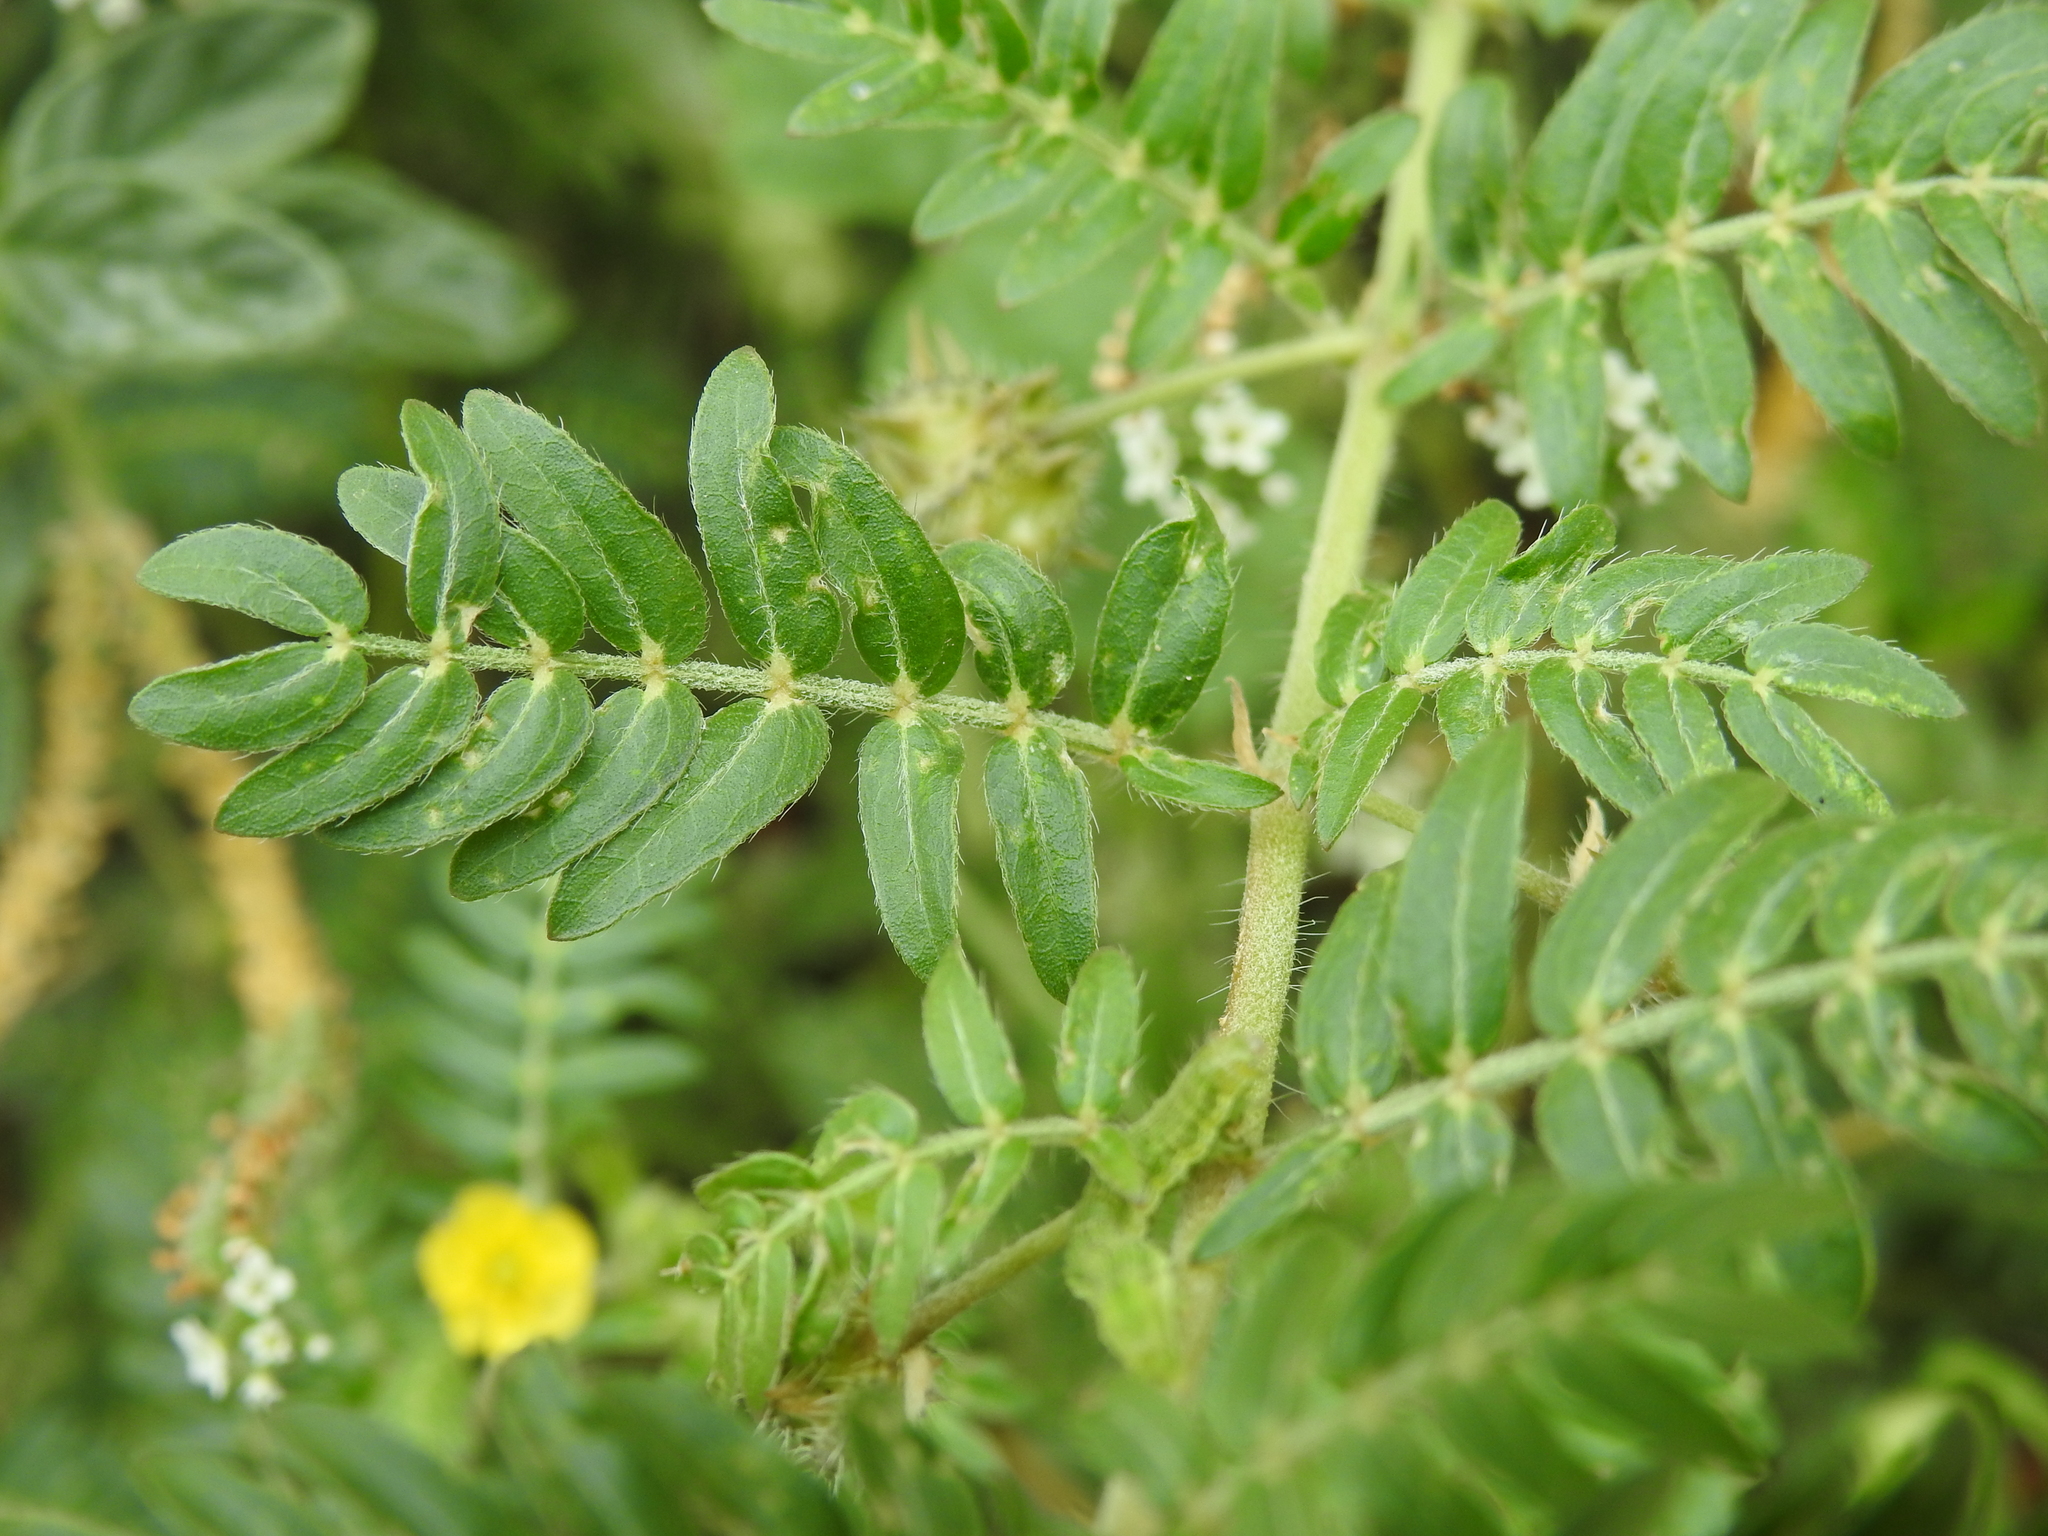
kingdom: Plantae
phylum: Tracheophyta
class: Magnoliopsida
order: Zygophyllales
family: Zygophyllaceae
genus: Tribulus
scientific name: Tribulus terrestris
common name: Puncturevine
